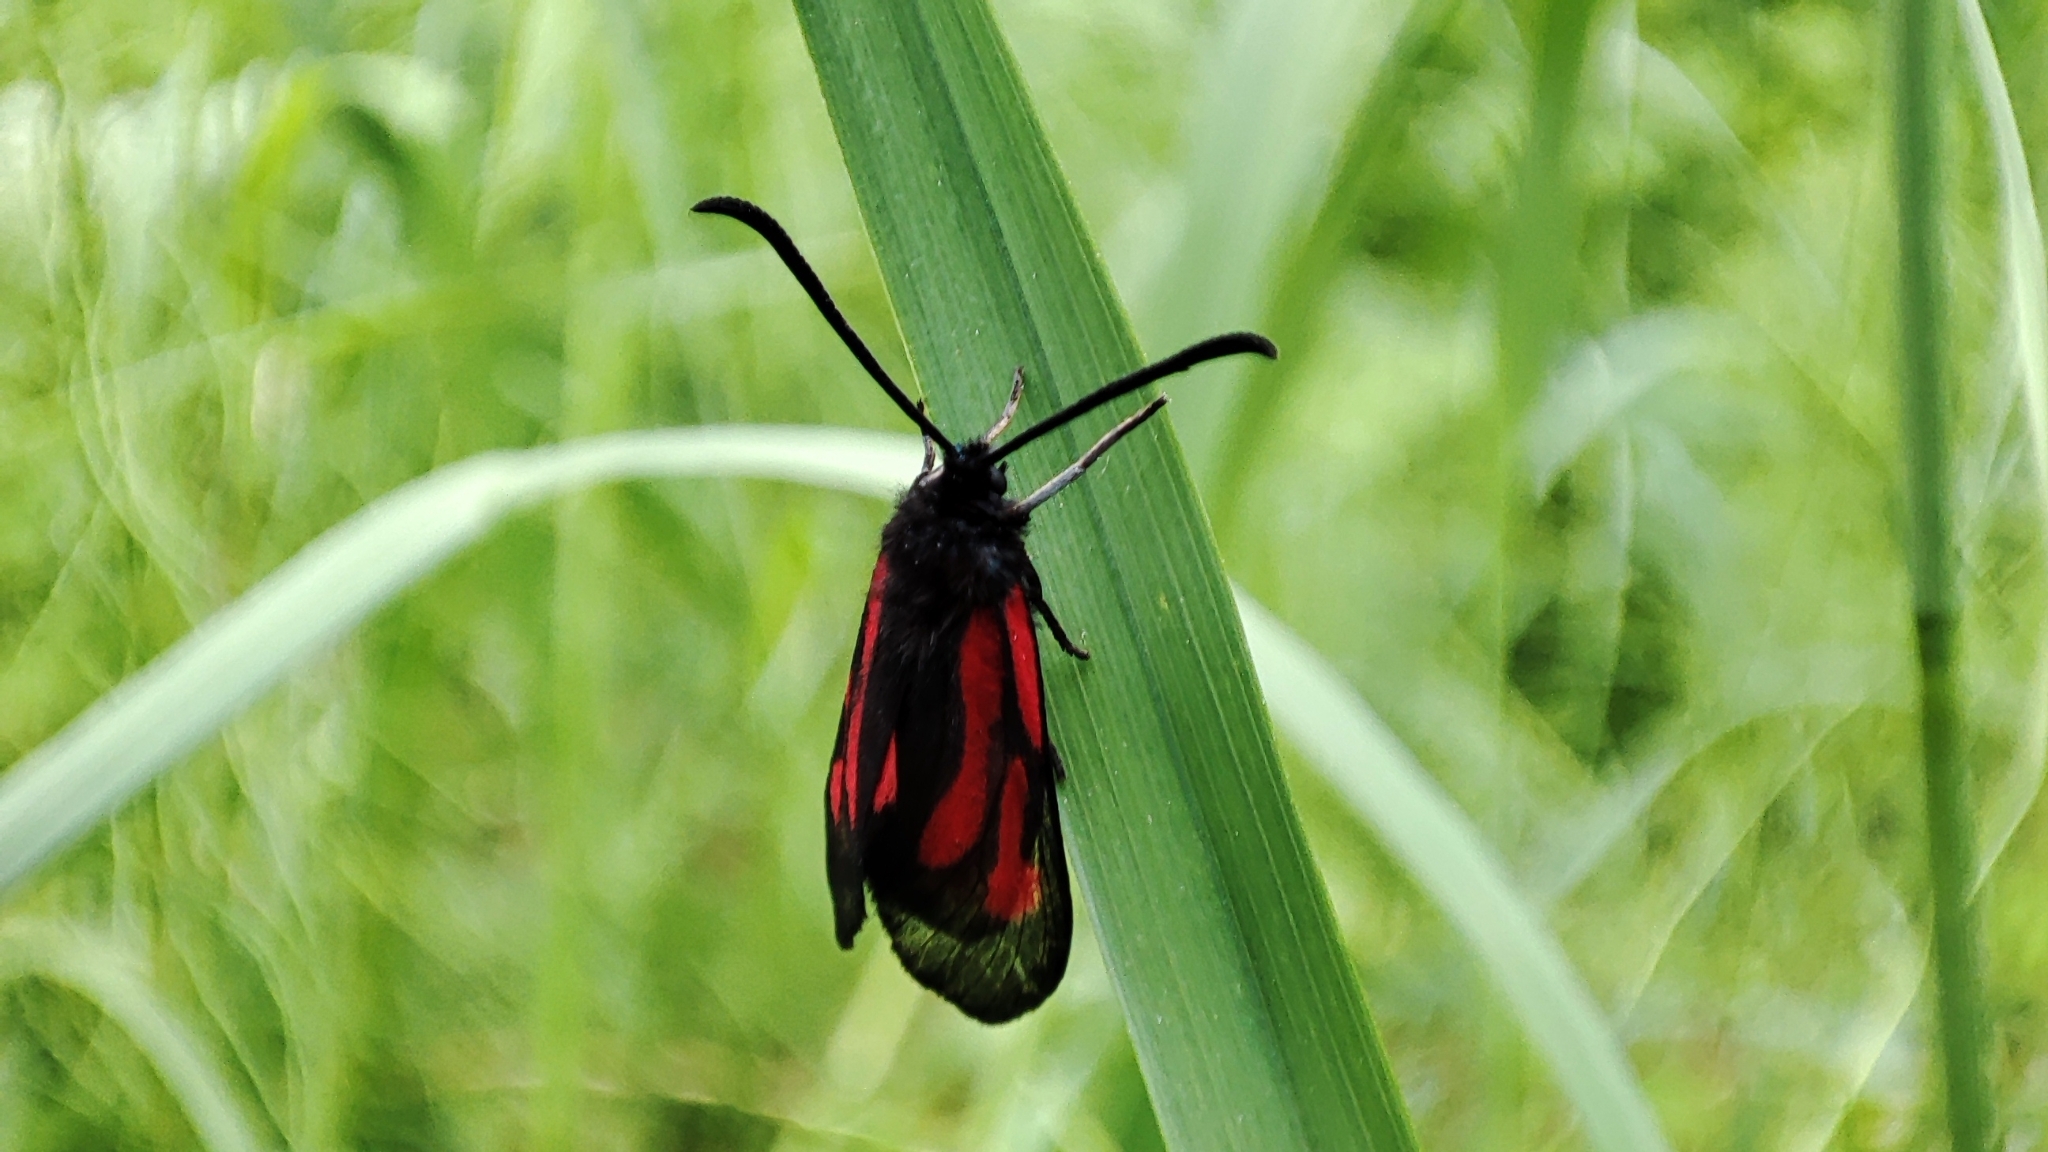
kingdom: Animalia
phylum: Arthropoda
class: Insecta
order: Lepidoptera
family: Zygaenidae
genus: Zygaena
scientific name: Zygaena osterodensis
